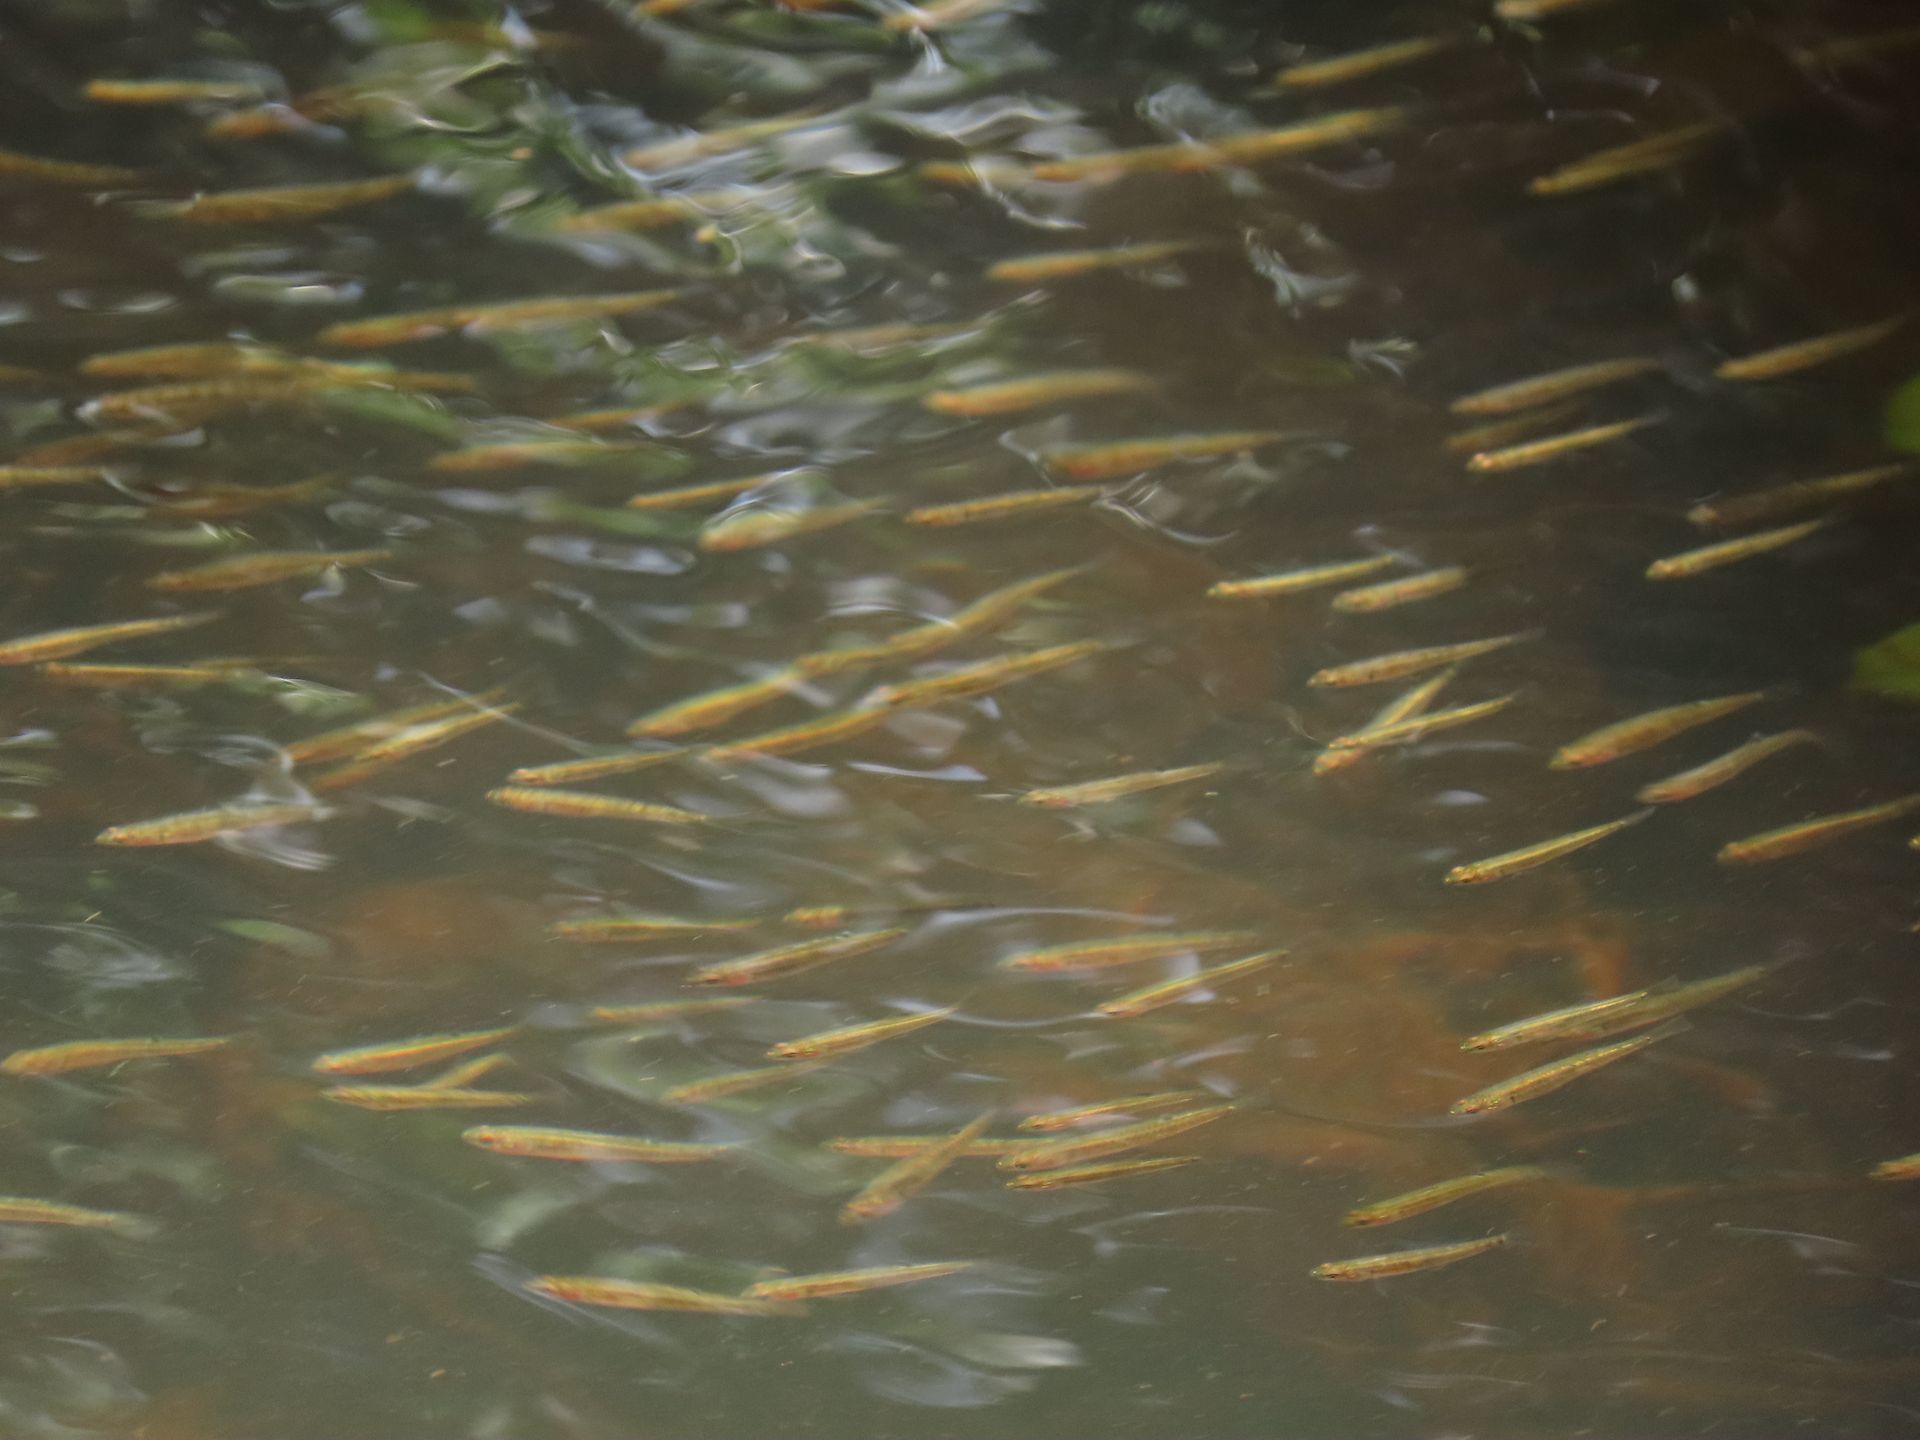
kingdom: Animalia
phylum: Chordata
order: Perciformes
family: Eleotridae
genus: Hypseleotris
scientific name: Hypseleotris compressa
